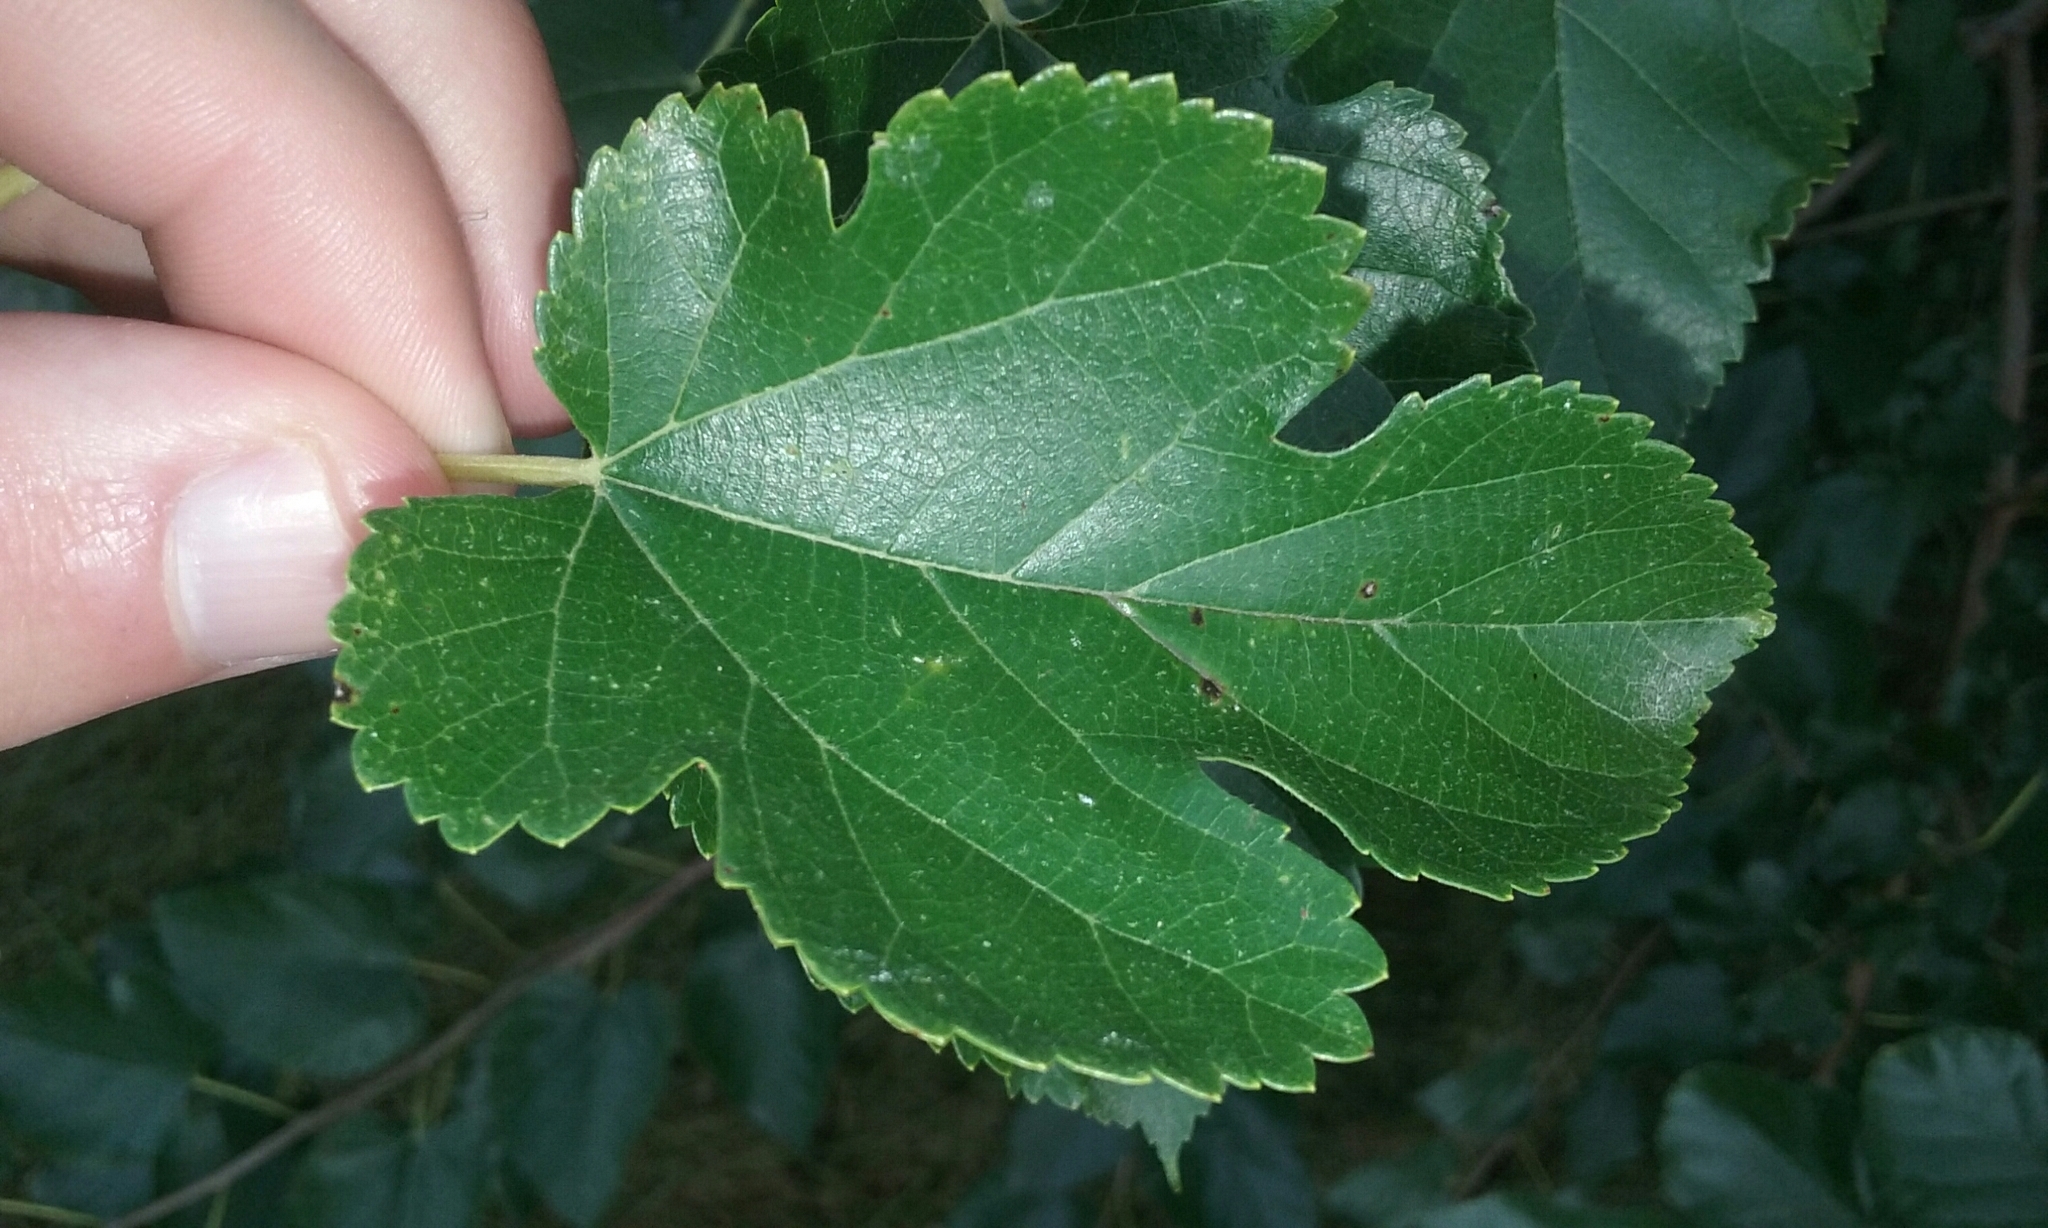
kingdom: Plantae
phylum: Tracheophyta
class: Magnoliopsida
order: Rosales
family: Moraceae
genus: Morus
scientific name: Morus alba
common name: White mulberry
